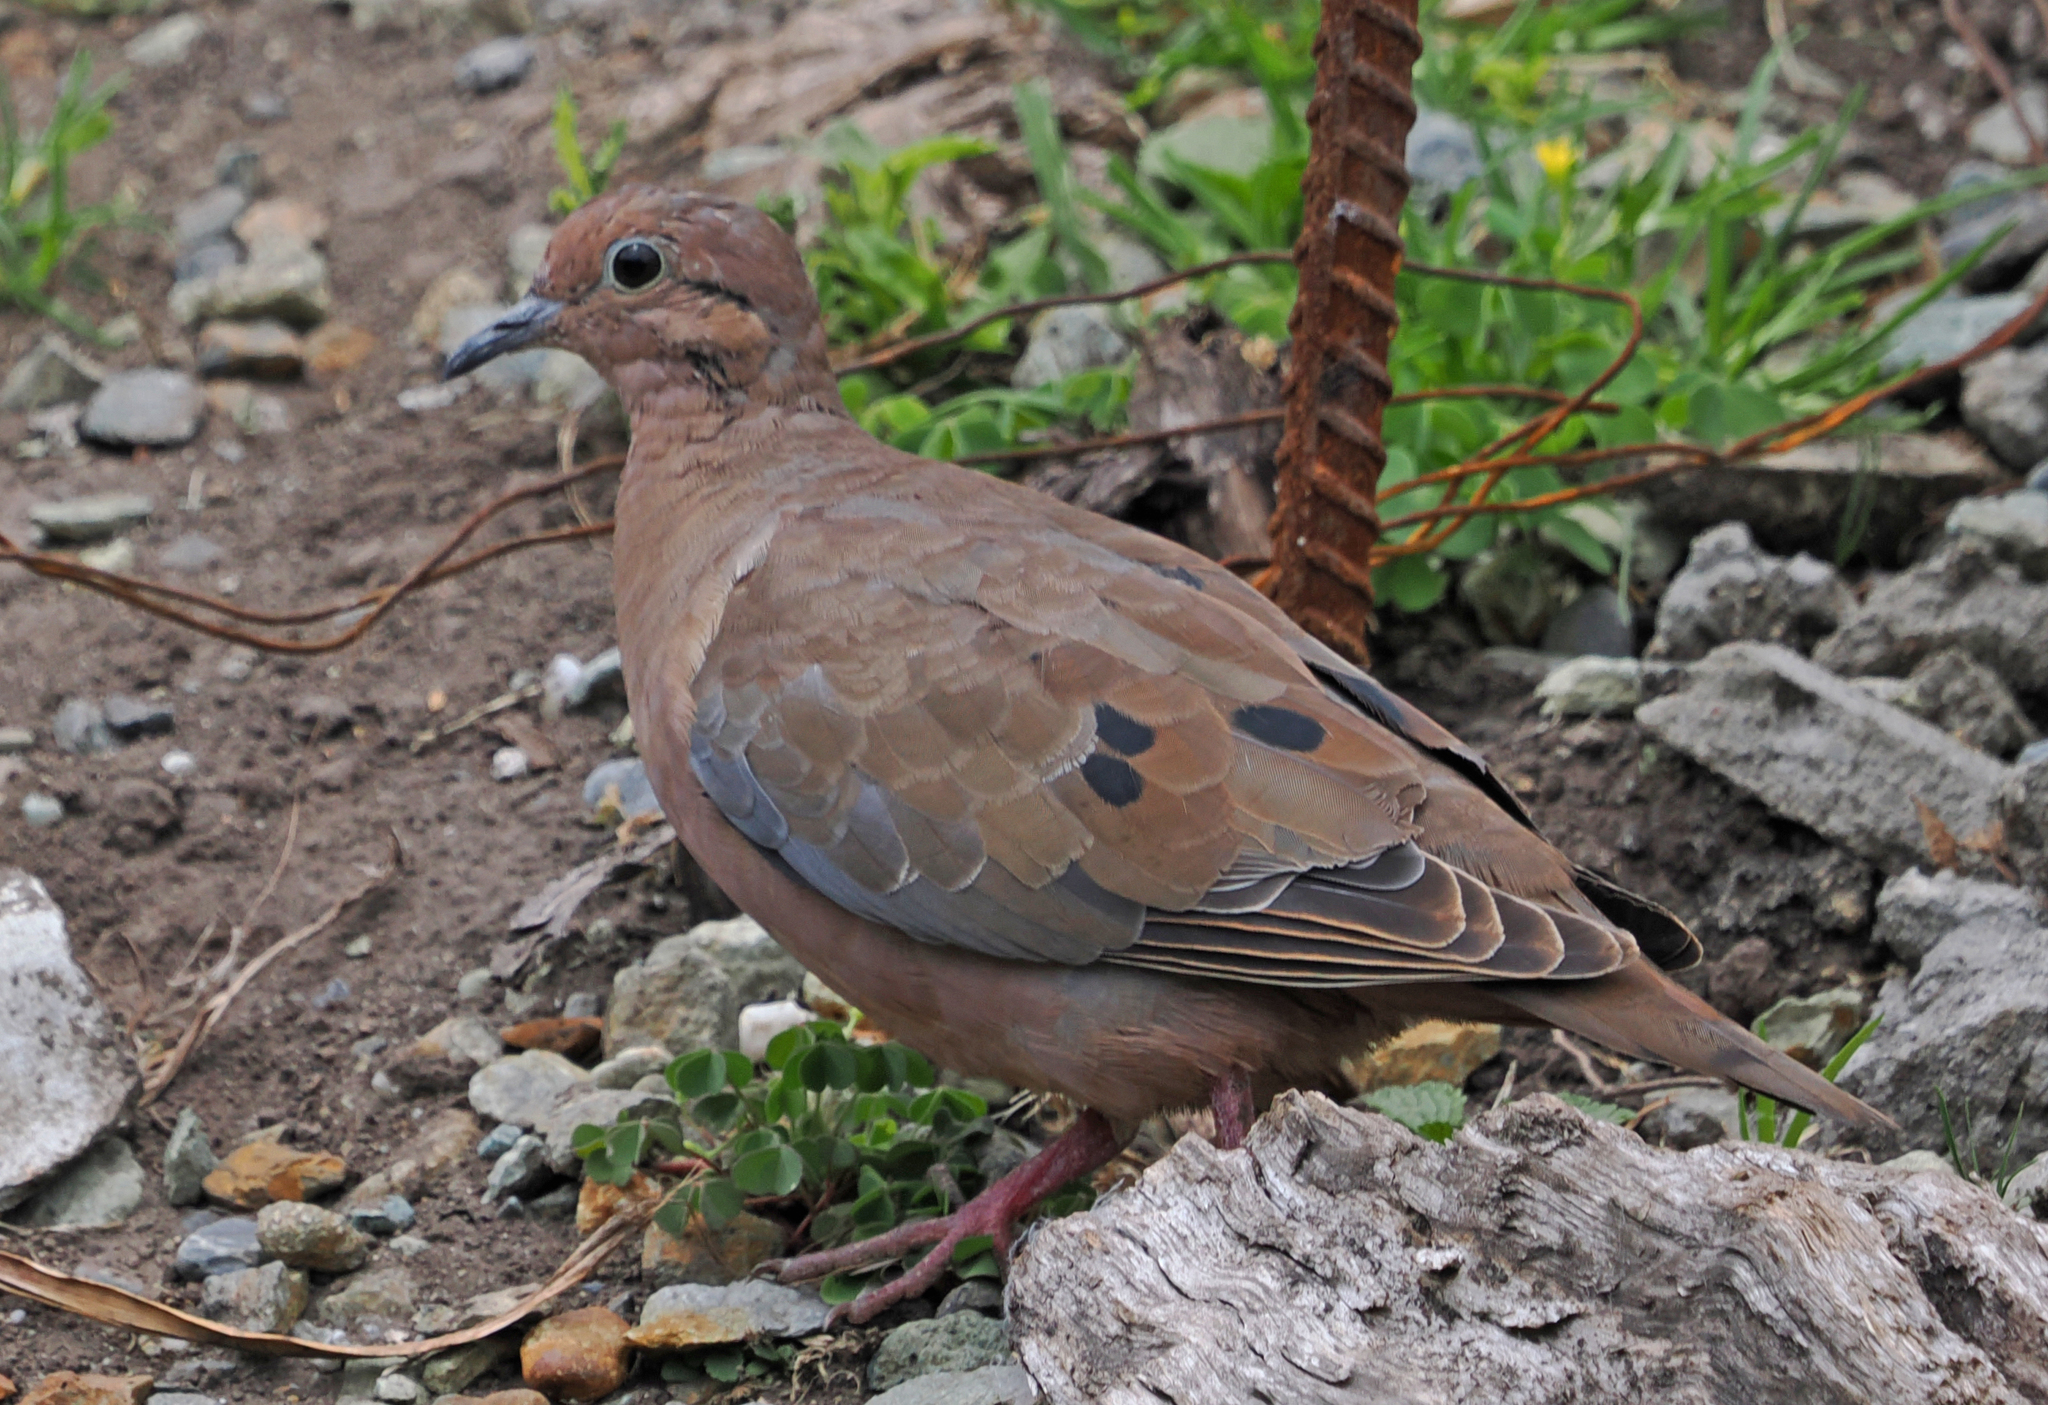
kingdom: Animalia
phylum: Chordata
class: Aves
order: Columbiformes
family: Columbidae
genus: Zenaida
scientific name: Zenaida auriculata
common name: Eared dove
